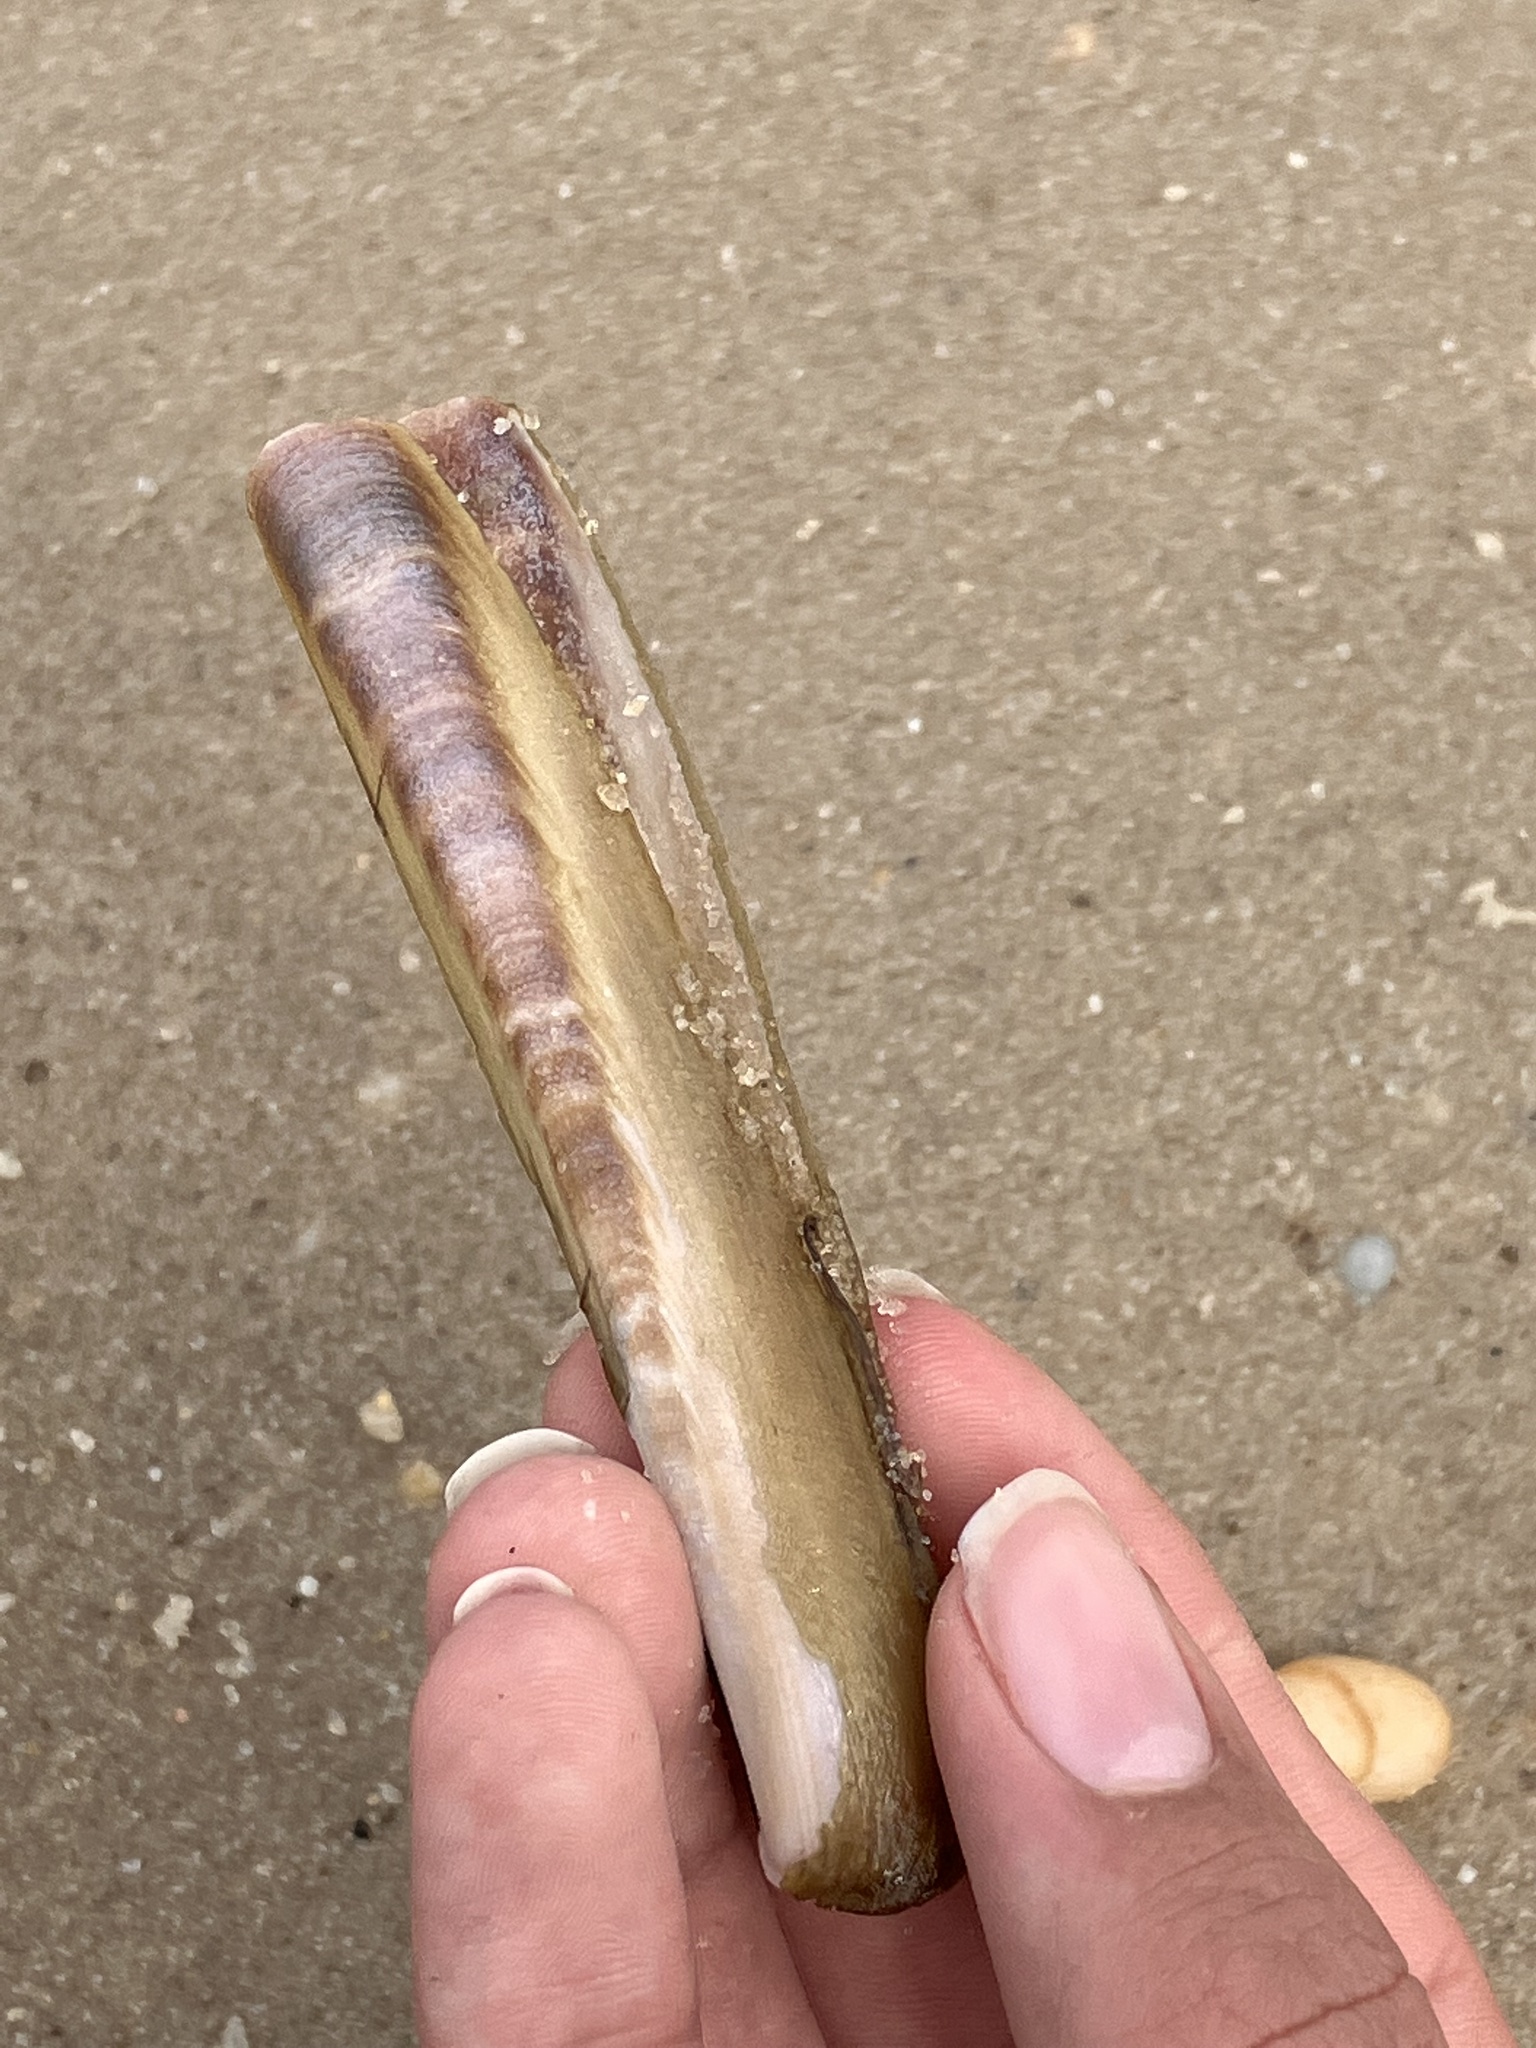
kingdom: Animalia
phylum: Mollusca
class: Bivalvia
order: Adapedonta
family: Pharidae
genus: Ensis
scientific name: Ensis leei
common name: American jack knife clam
